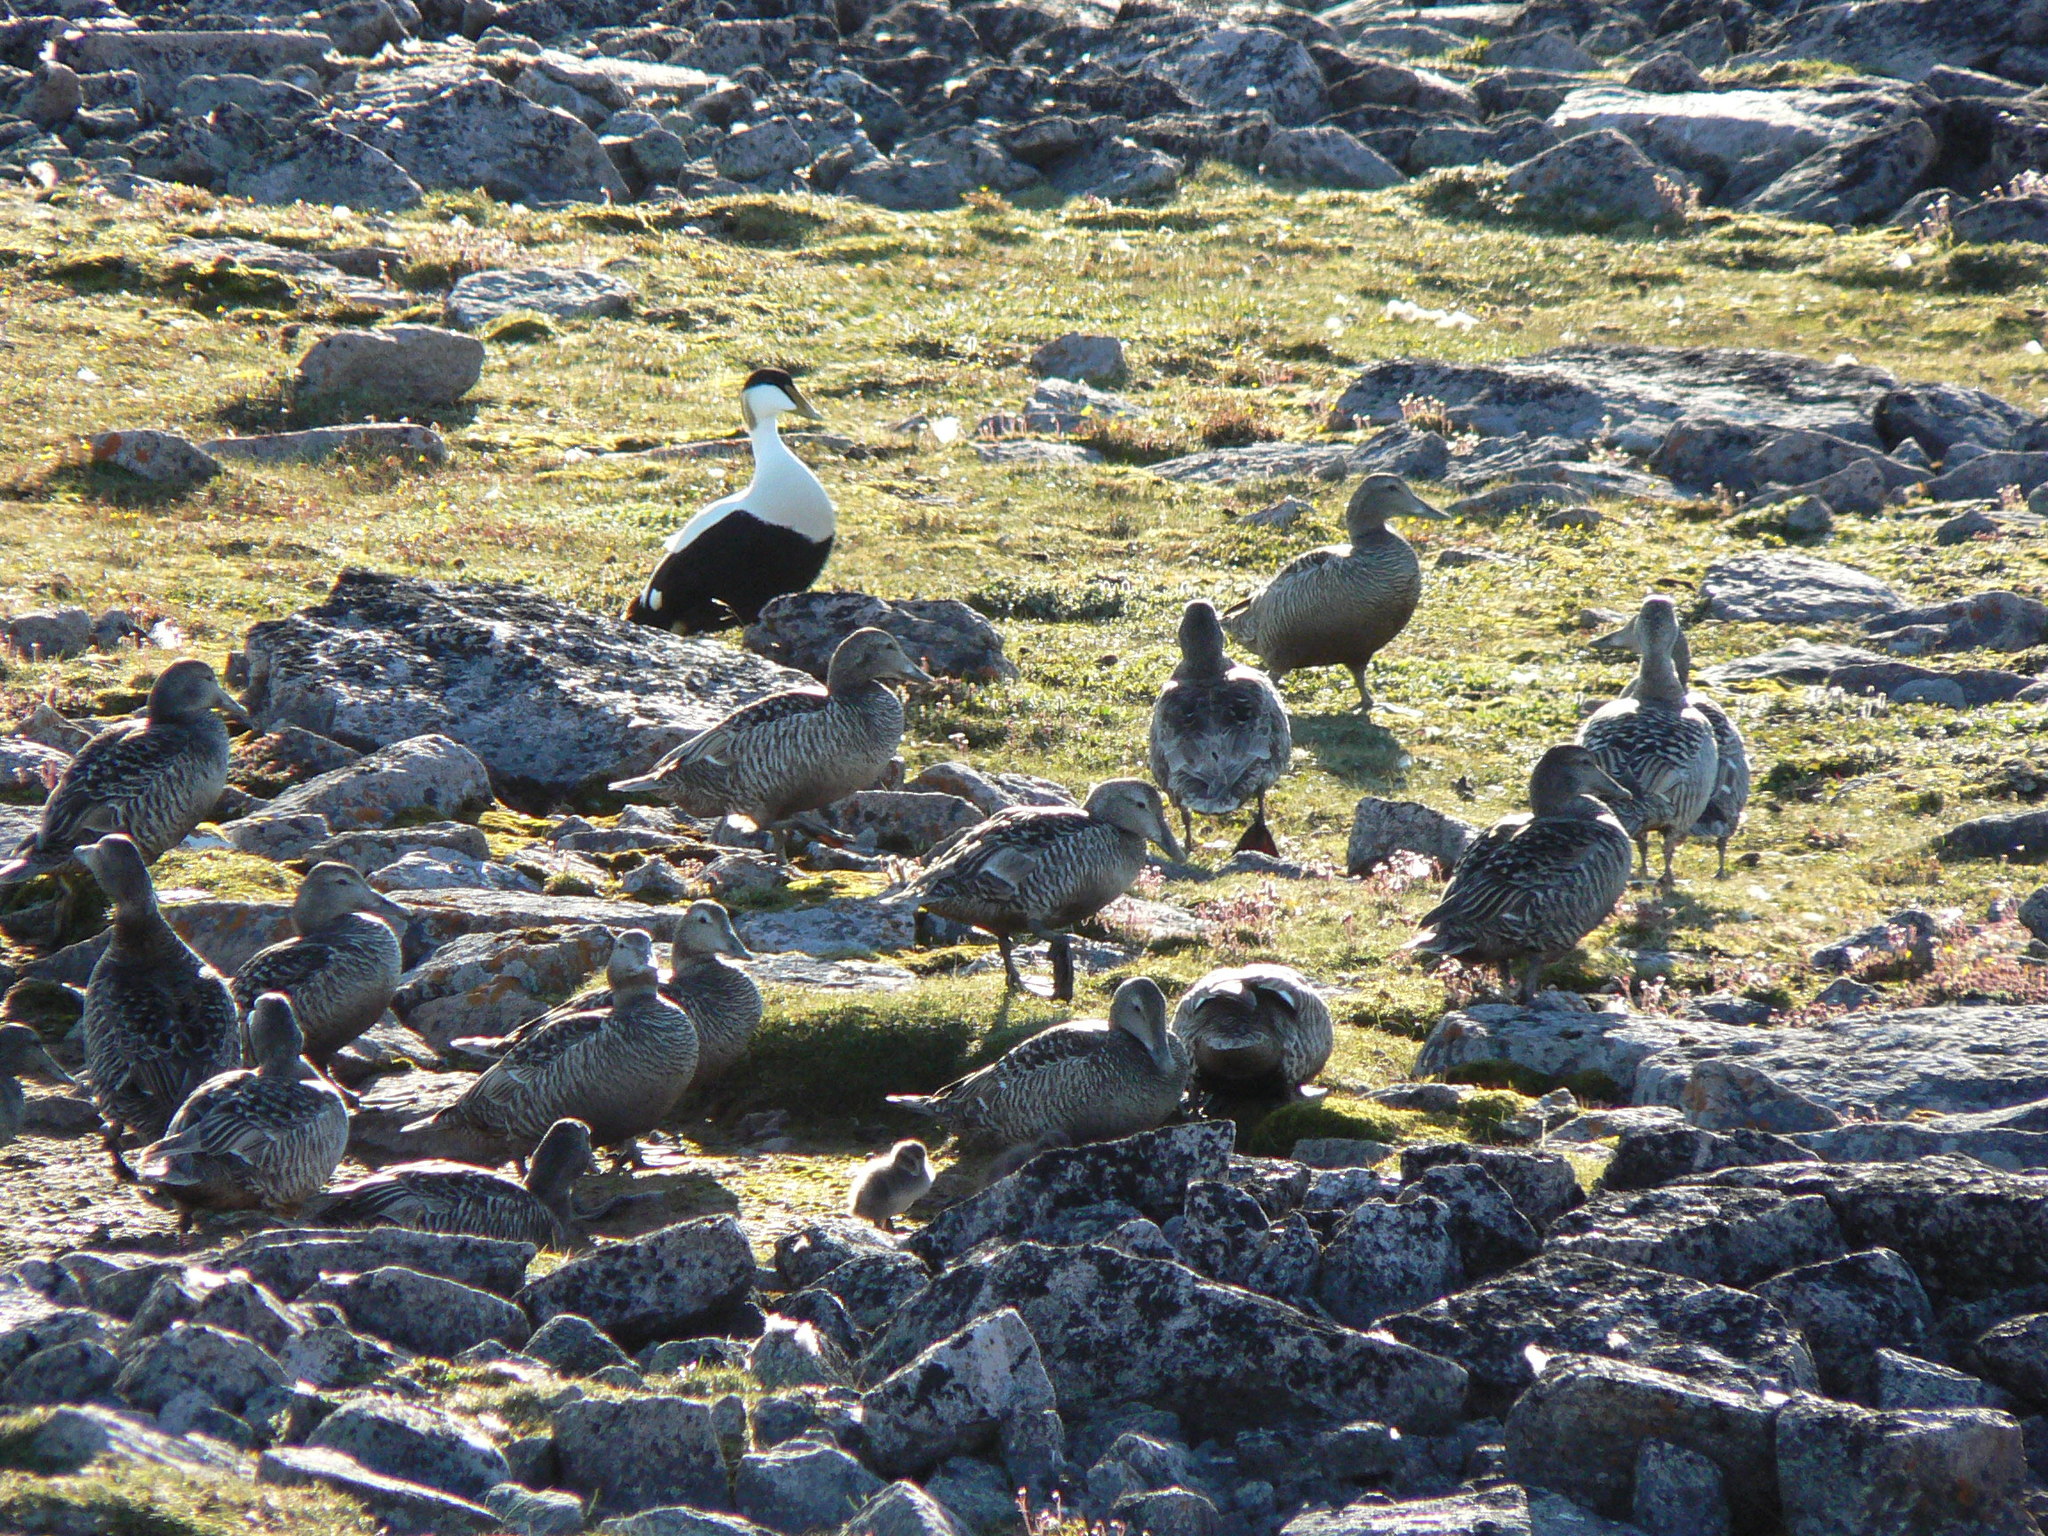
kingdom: Animalia
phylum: Chordata
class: Aves
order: Anseriformes
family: Anatidae
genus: Somateria
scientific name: Somateria mollissima
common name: Common eider
